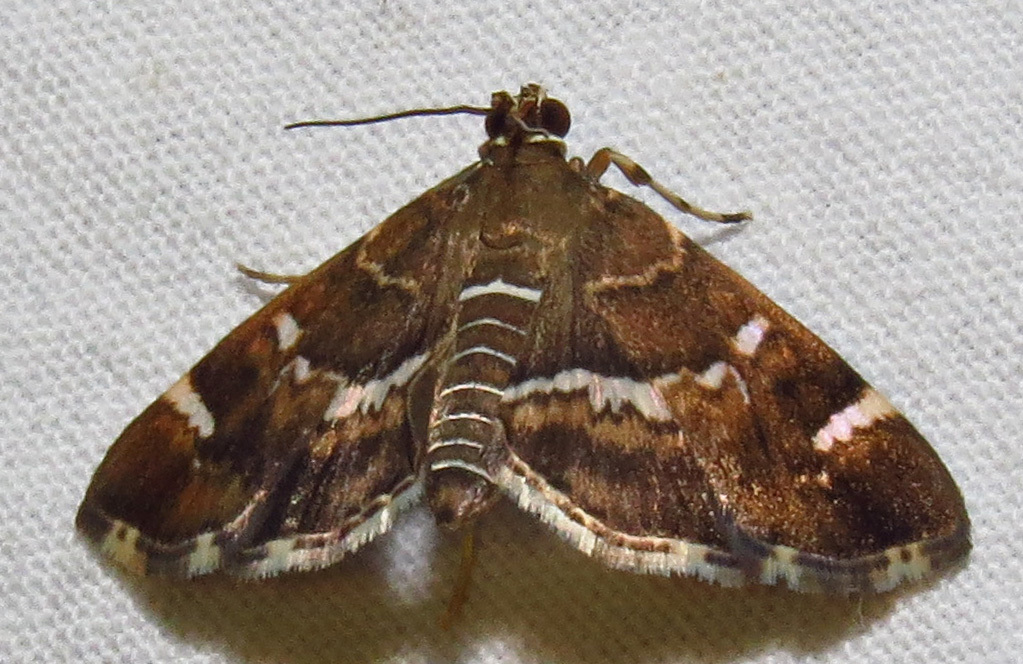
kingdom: Animalia
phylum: Arthropoda
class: Insecta
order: Lepidoptera
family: Crambidae
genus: Hymenia
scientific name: Hymenia perspectalis
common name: Spotted beet webworm
